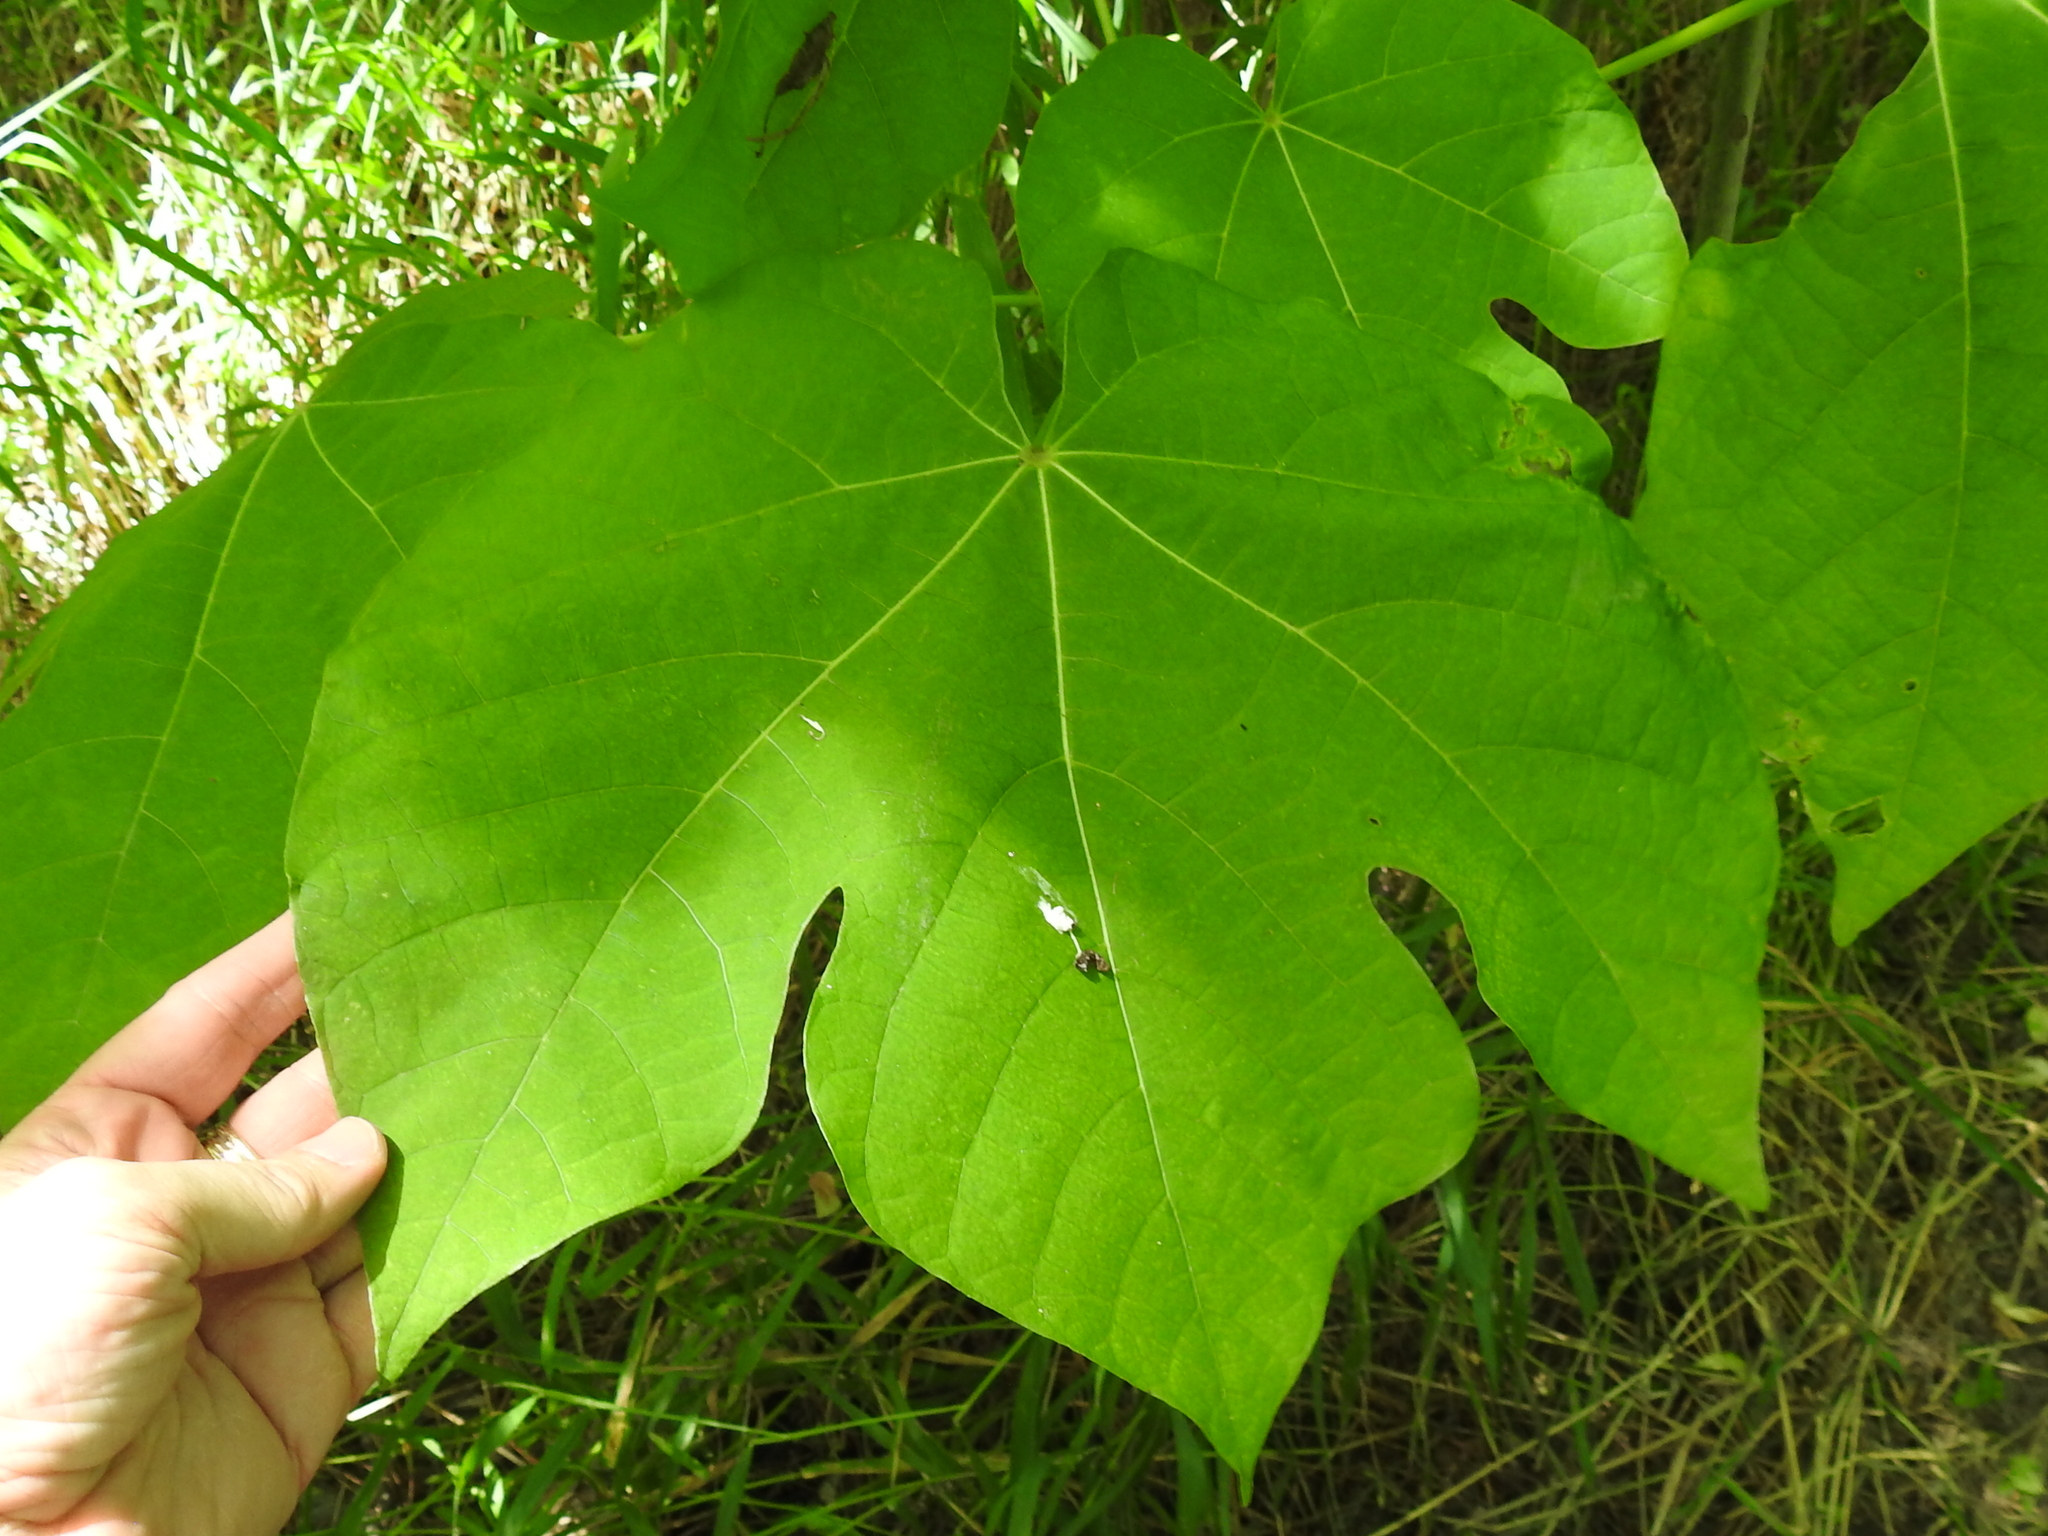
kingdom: Plantae
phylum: Tracheophyta
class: Magnoliopsida
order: Malvales
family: Malvaceae
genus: Firmiana
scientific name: Firmiana simplex
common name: Chinese parasoltree
